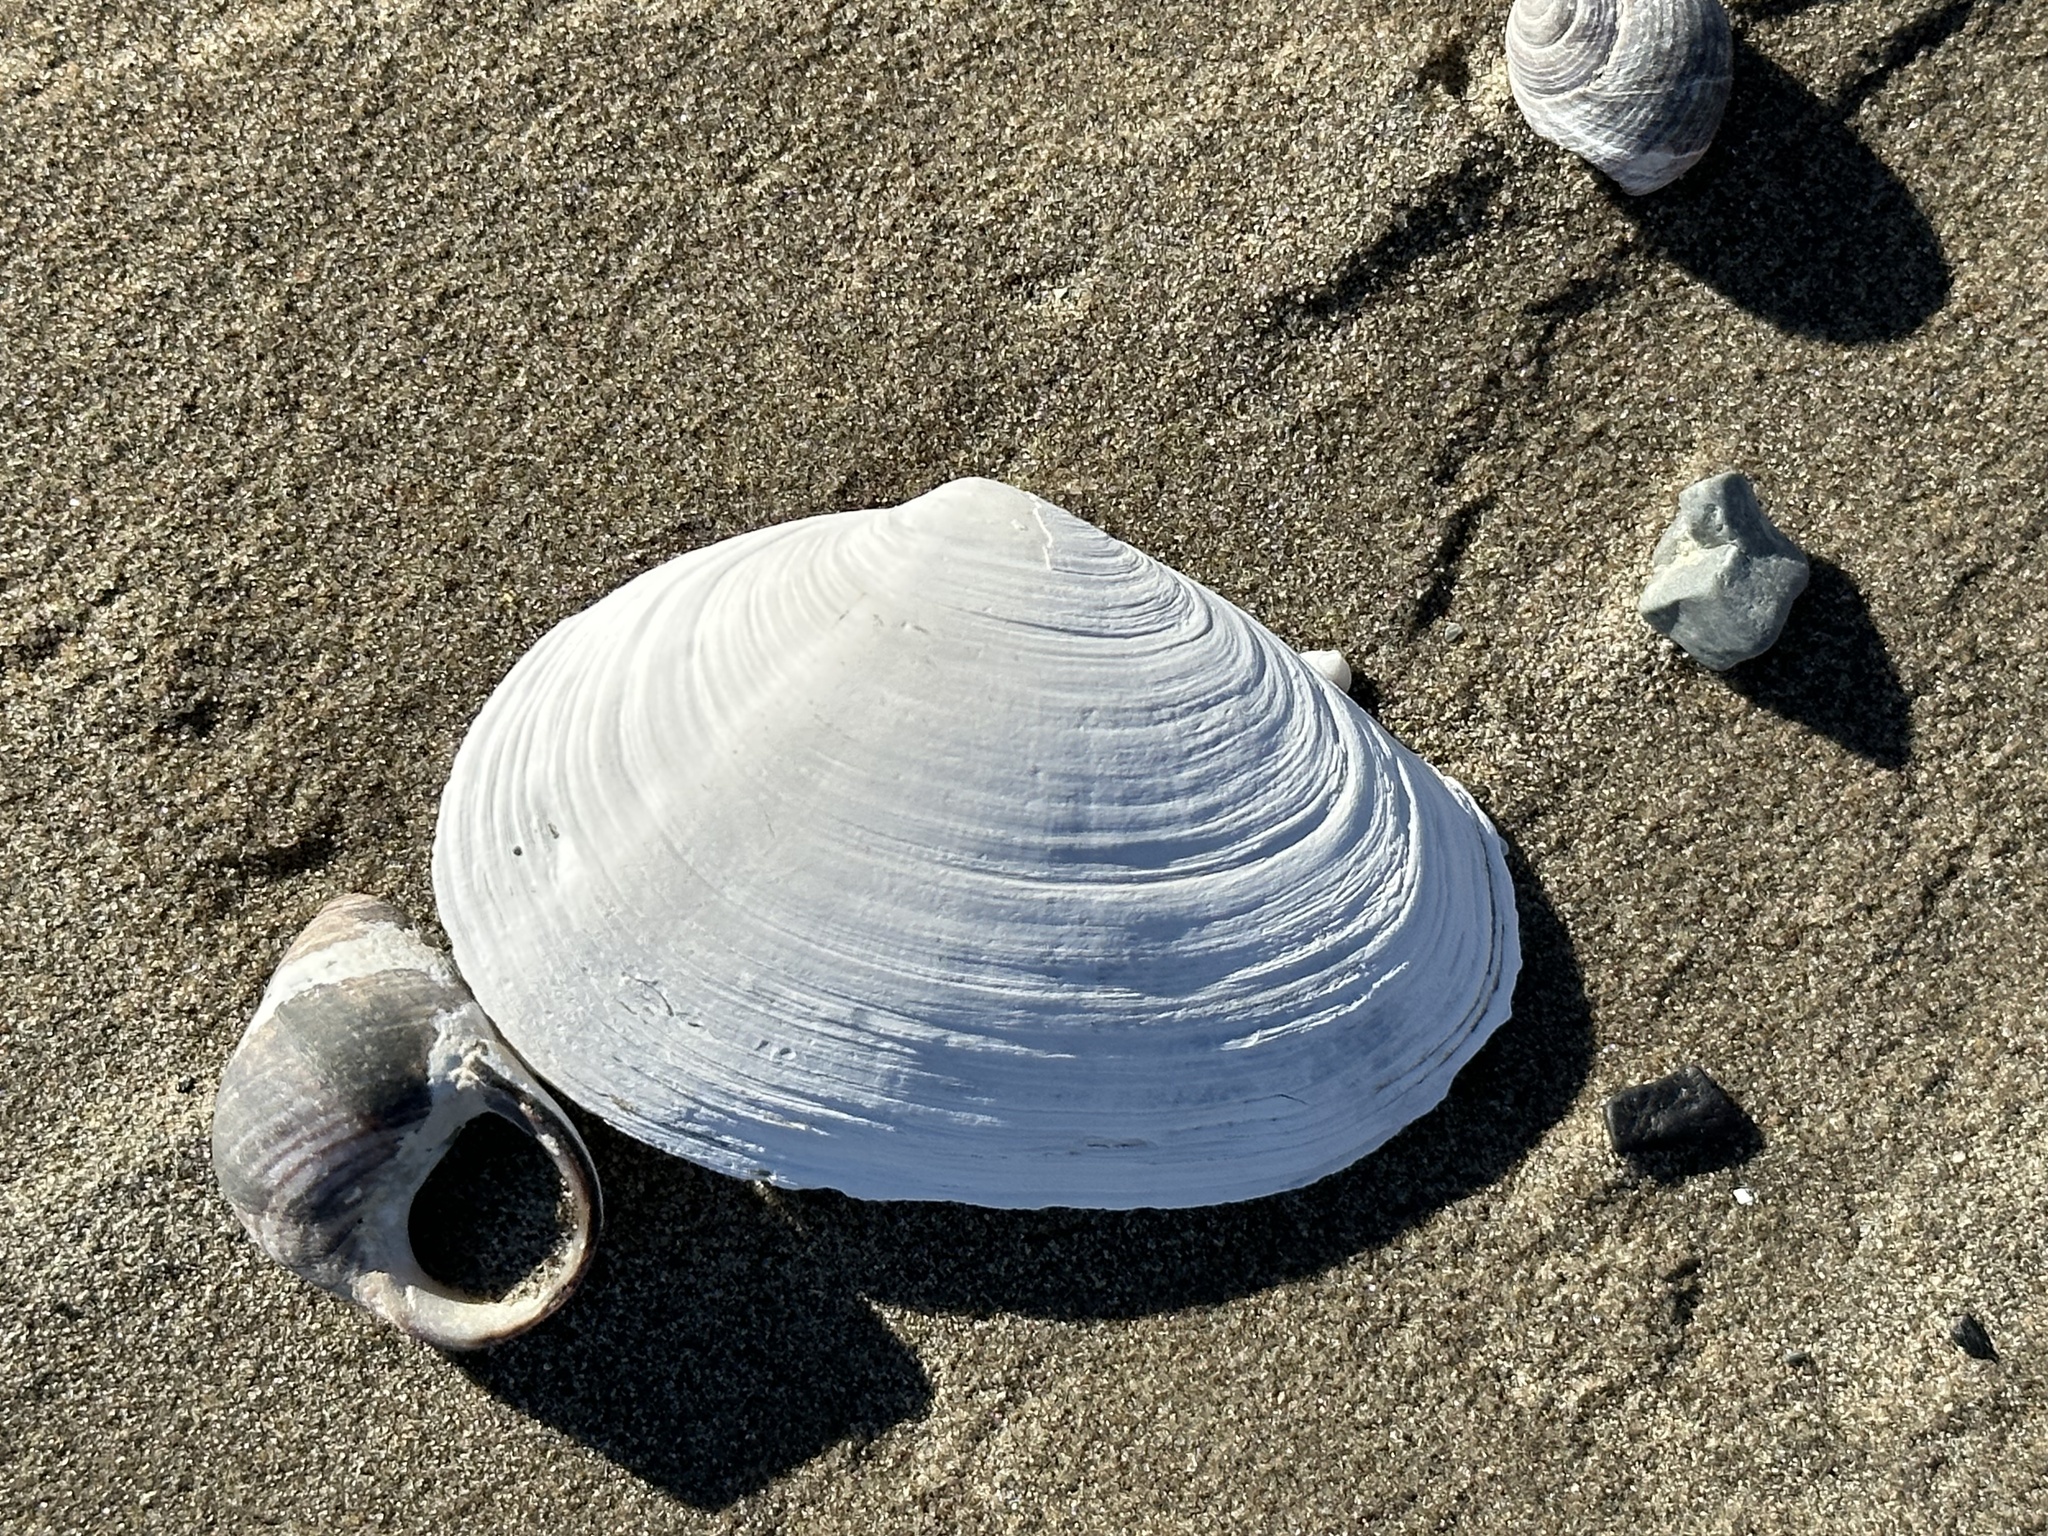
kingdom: Animalia
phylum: Mollusca
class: Bivalvia
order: Myida
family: Myidae
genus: Mya
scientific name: Mya arenaria
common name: Soft-shelled clam
